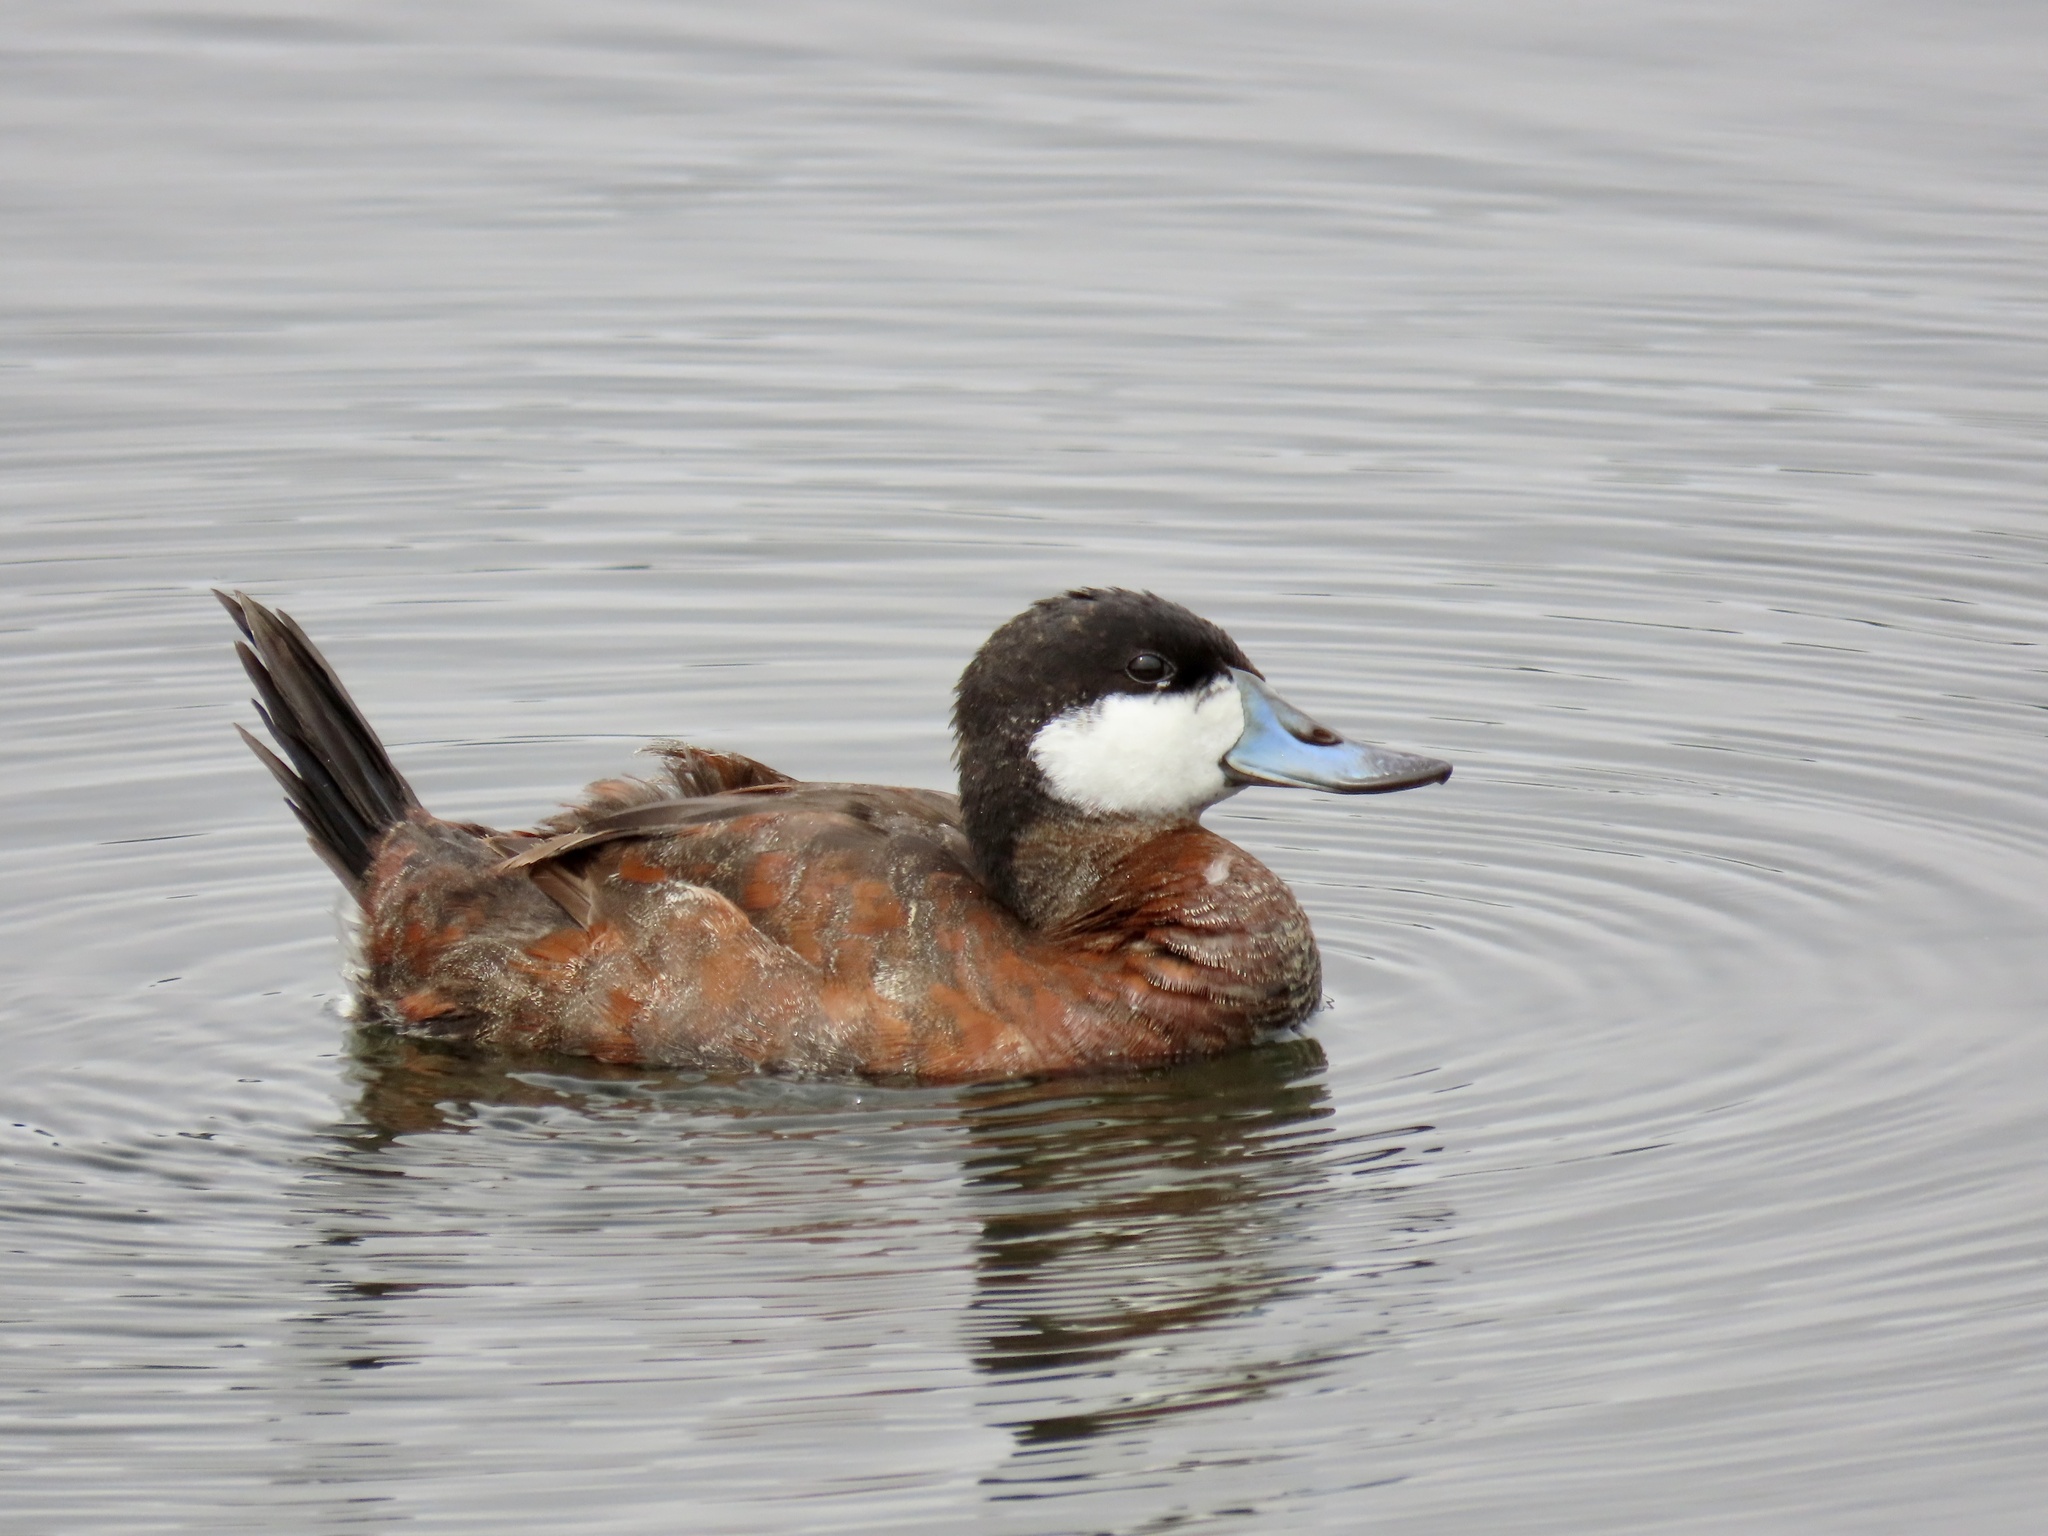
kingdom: Animalia
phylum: Chordata
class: Aves
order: Anseriformes
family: Anatidae
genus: Oxyura
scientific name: Oxyura jamaicensis
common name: Ruddy duck
